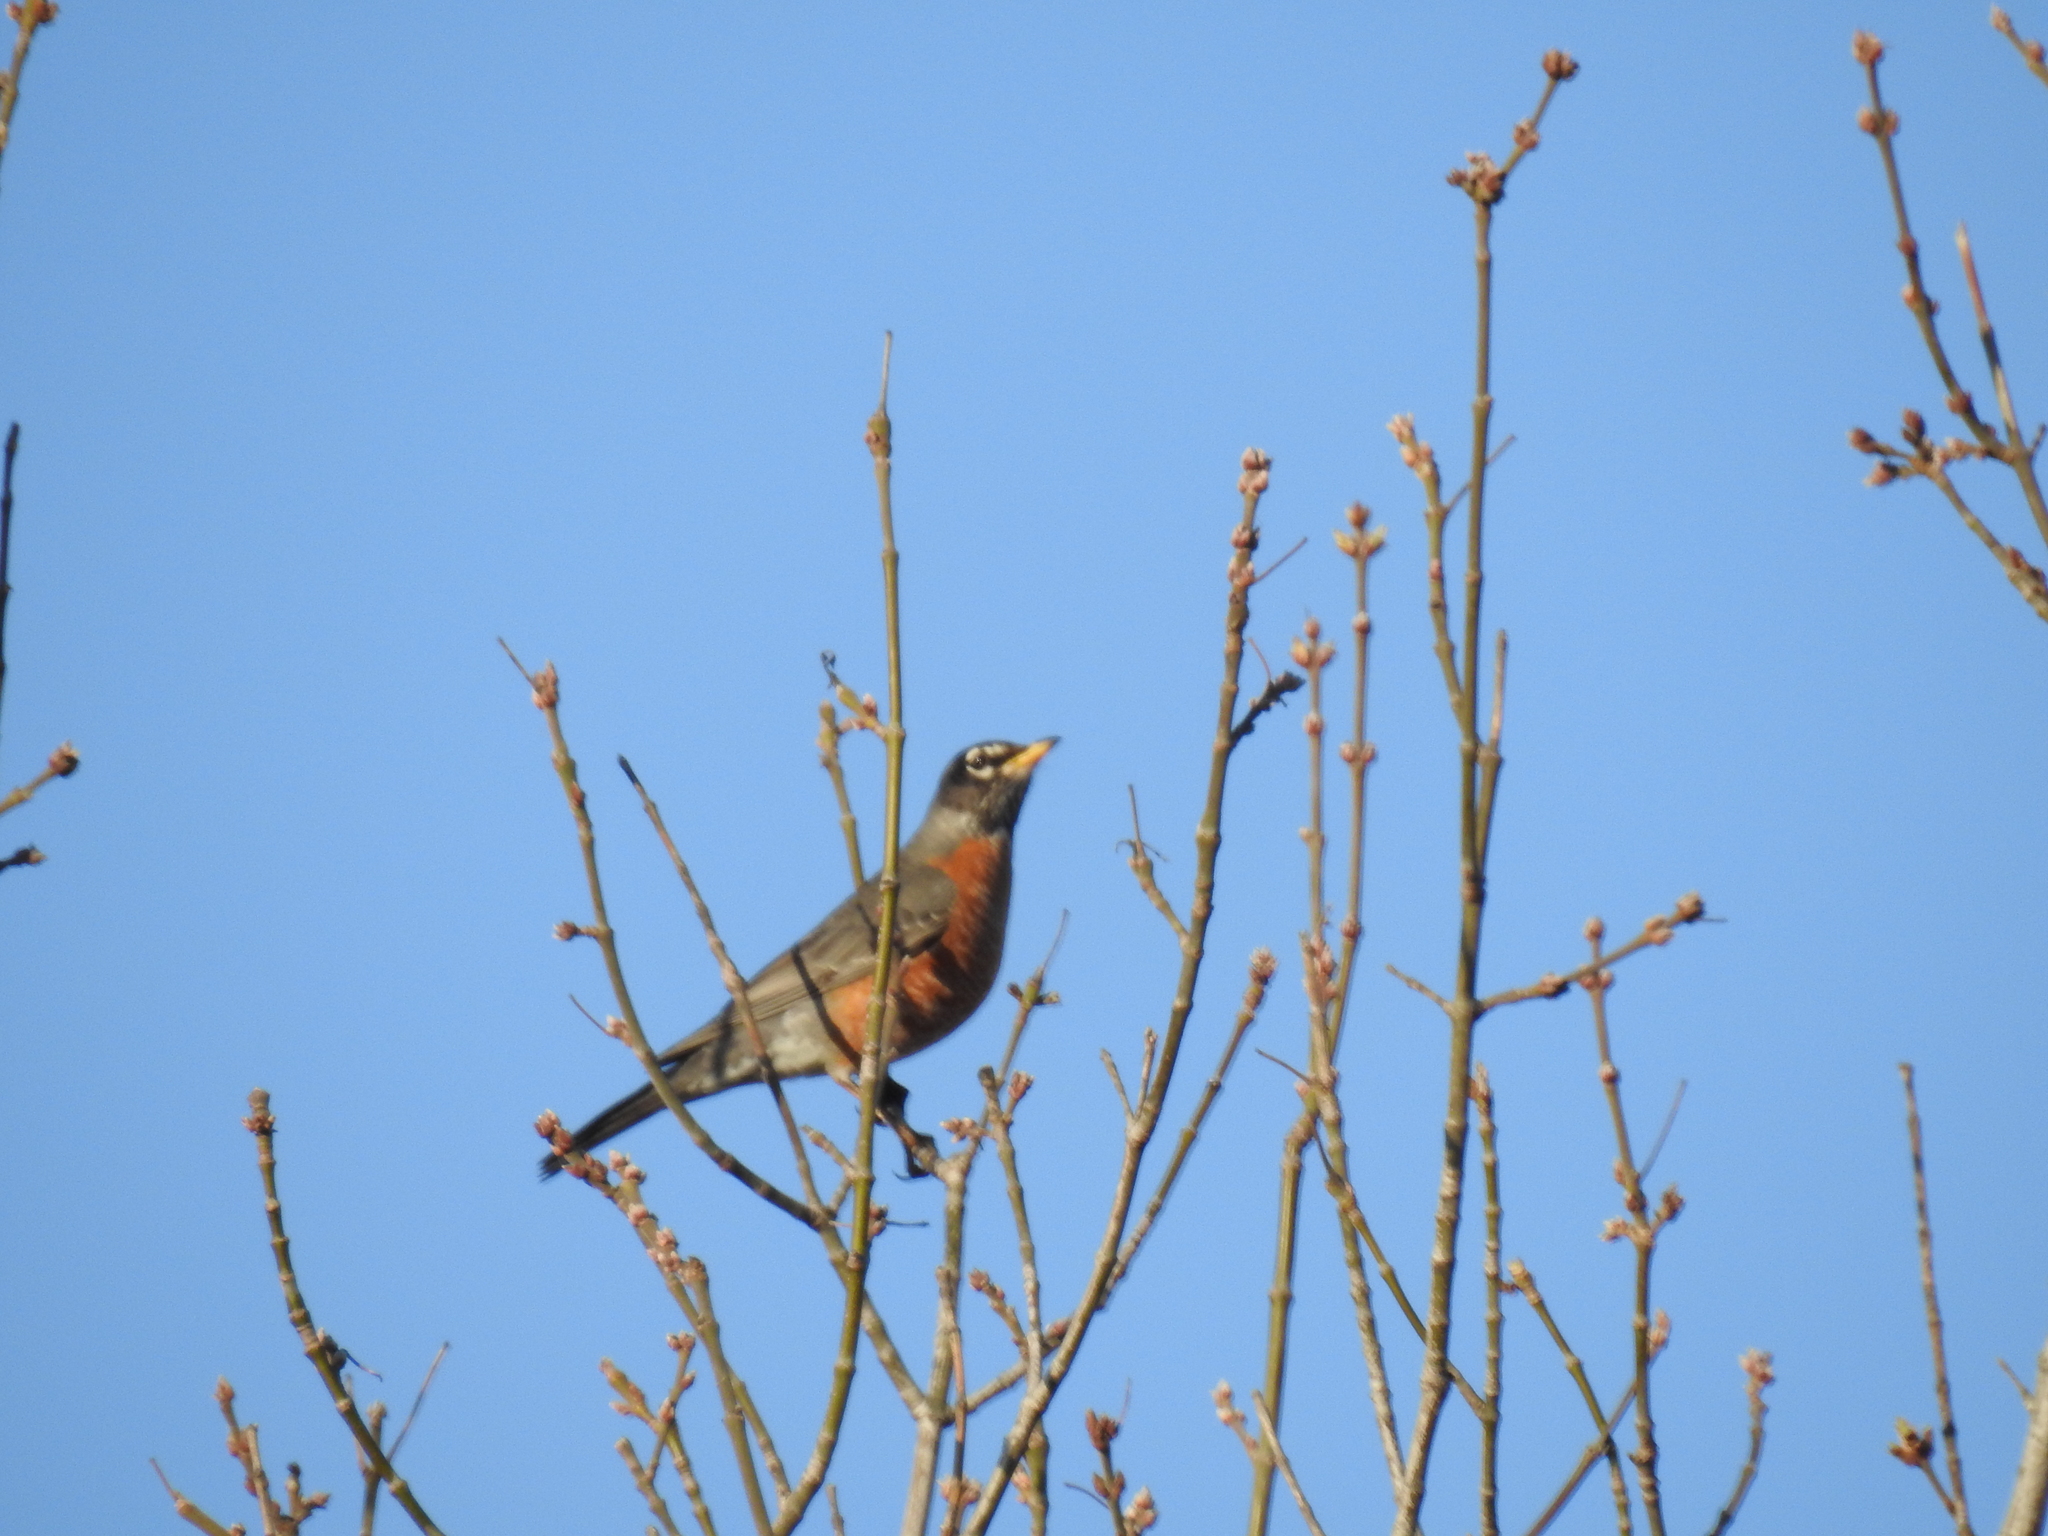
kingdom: Animalia
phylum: Chordata
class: Aves
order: Passeriformes
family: Turdidae
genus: Turdus
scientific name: Turdus migratorius
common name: American robin
